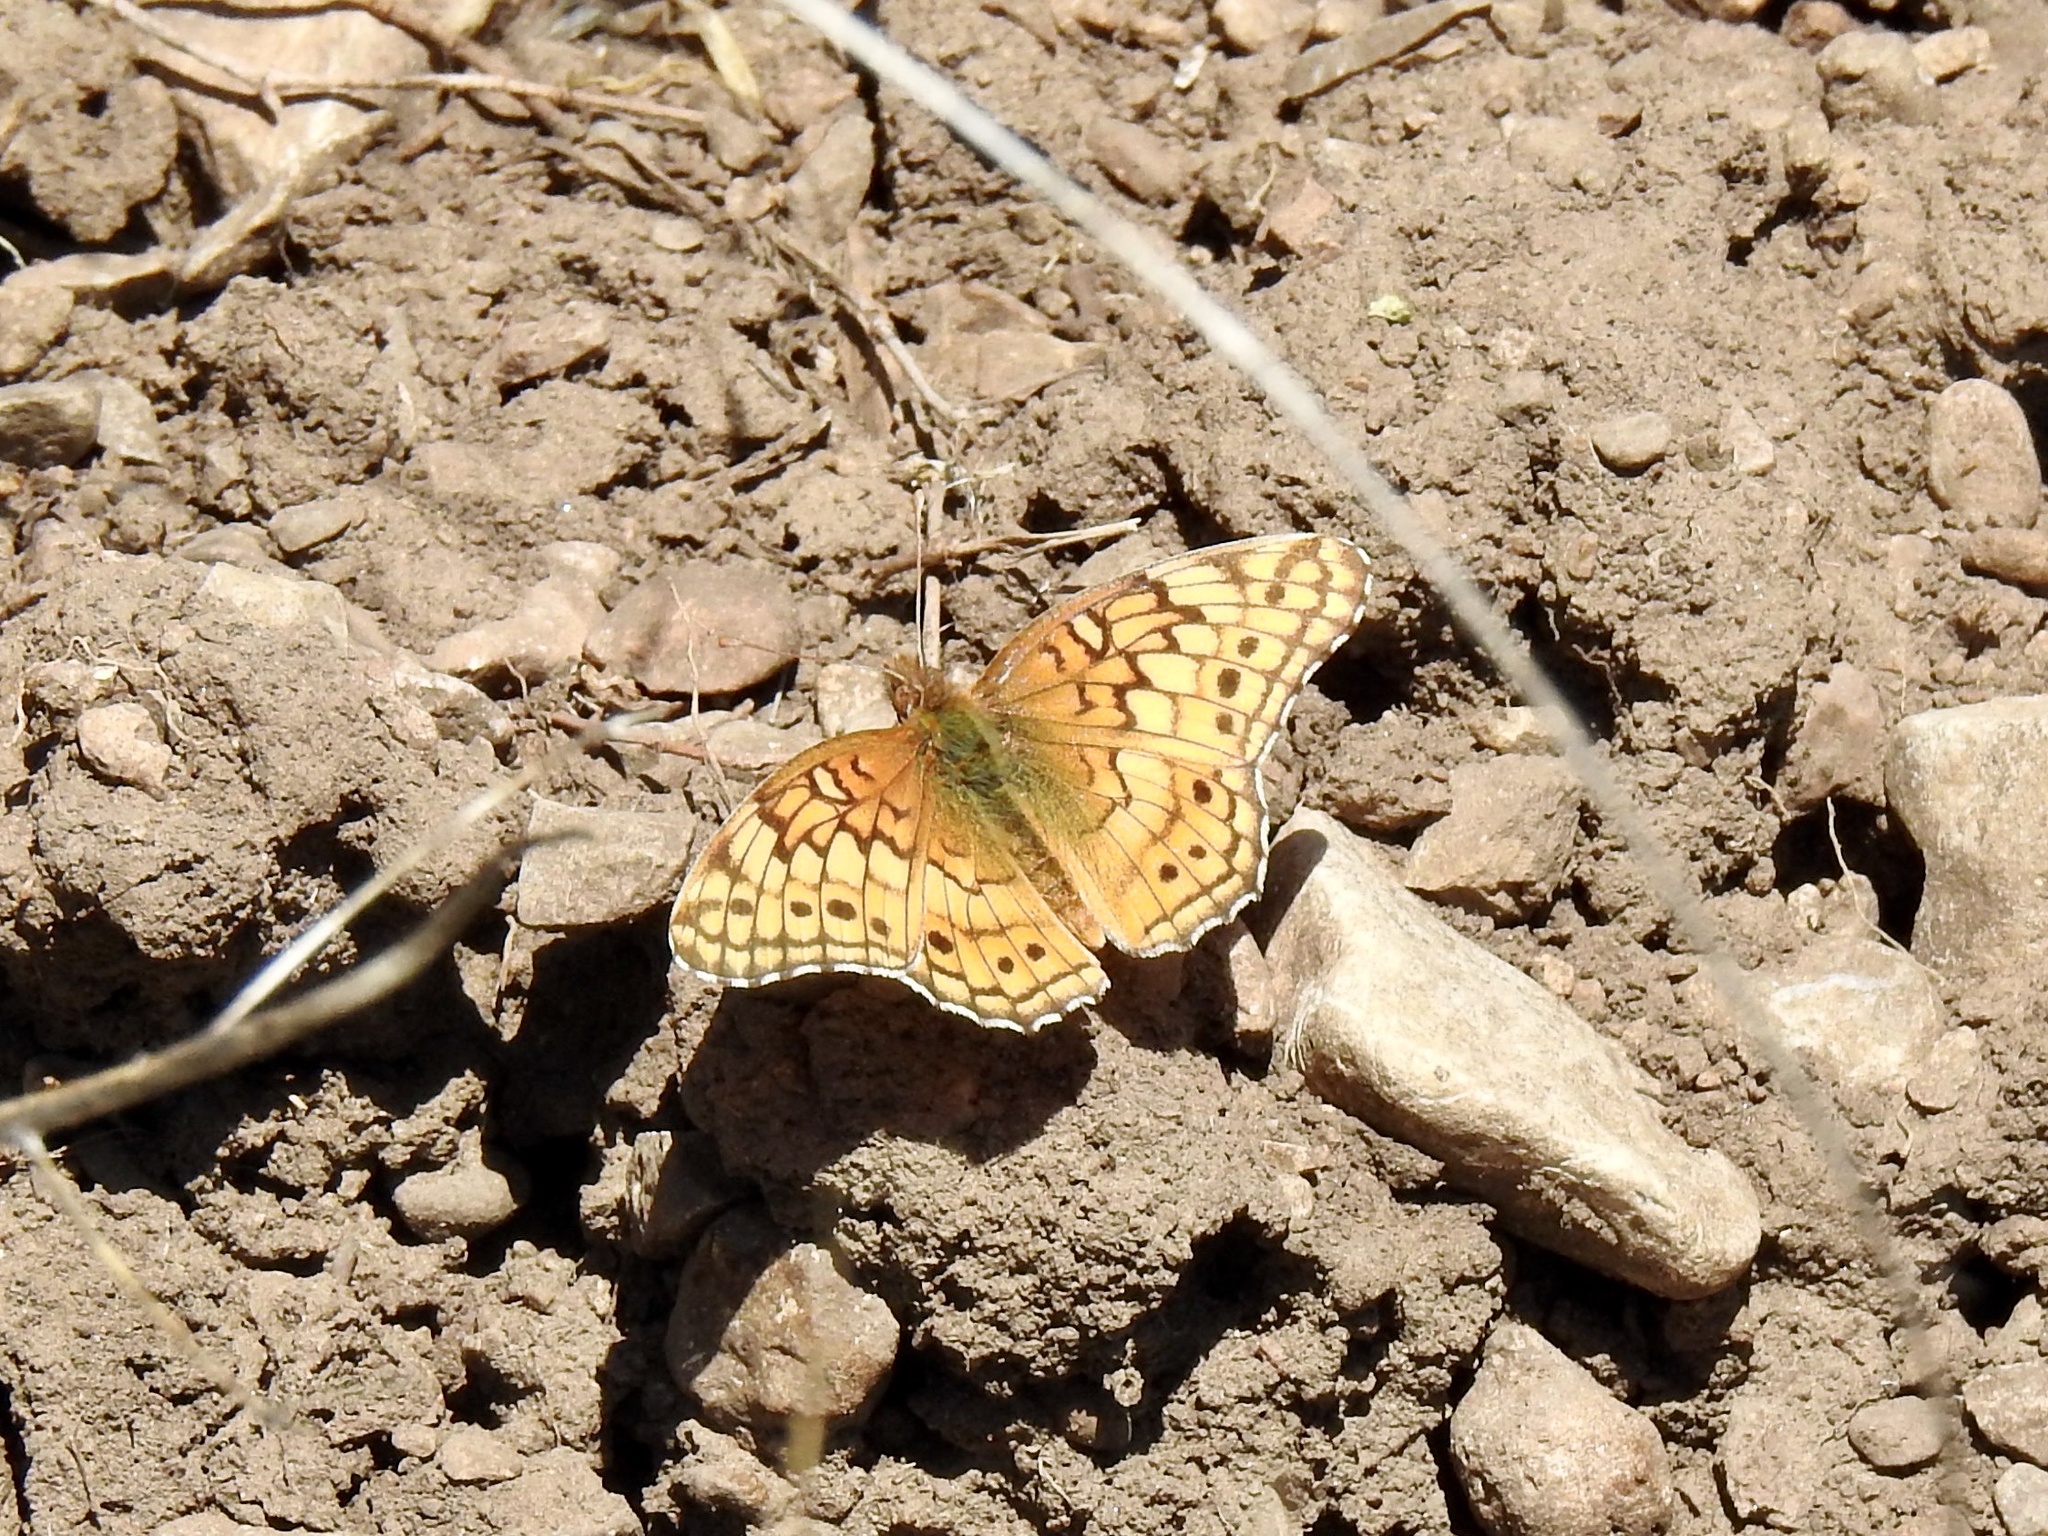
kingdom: Animalia
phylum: Arthropoda
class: Insecta
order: Lepidoptera
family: Nymphalidae
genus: Euptoieta
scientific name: Euptoieta claudia
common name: Variegated fritillary
